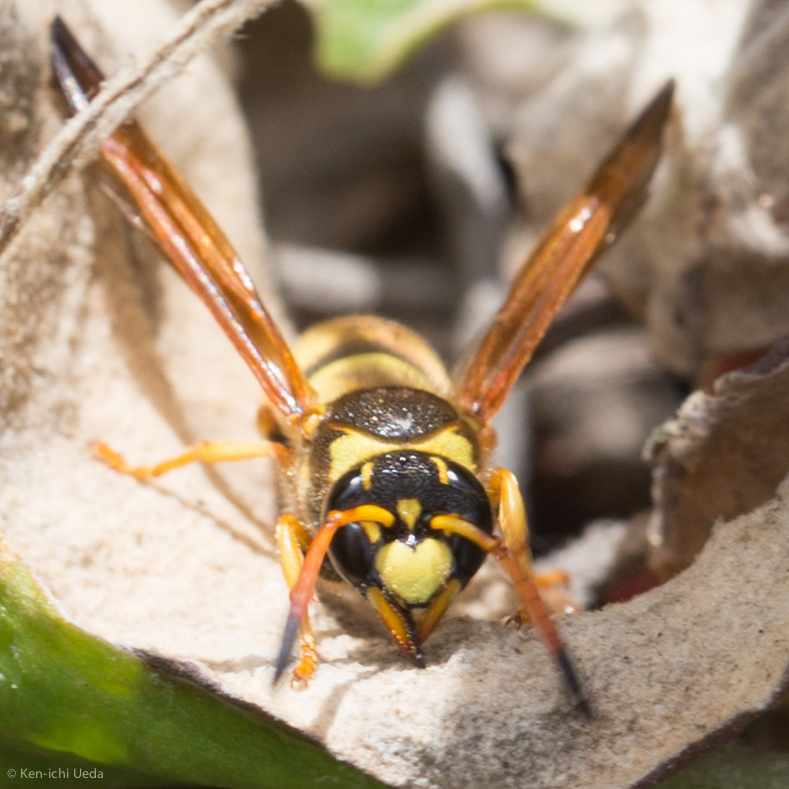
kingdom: Animalia
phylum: Arthropoda
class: Insecta
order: Hymenoptera
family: Vespidae
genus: Ancistrocerus
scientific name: Ancistrocerus lineativentris
